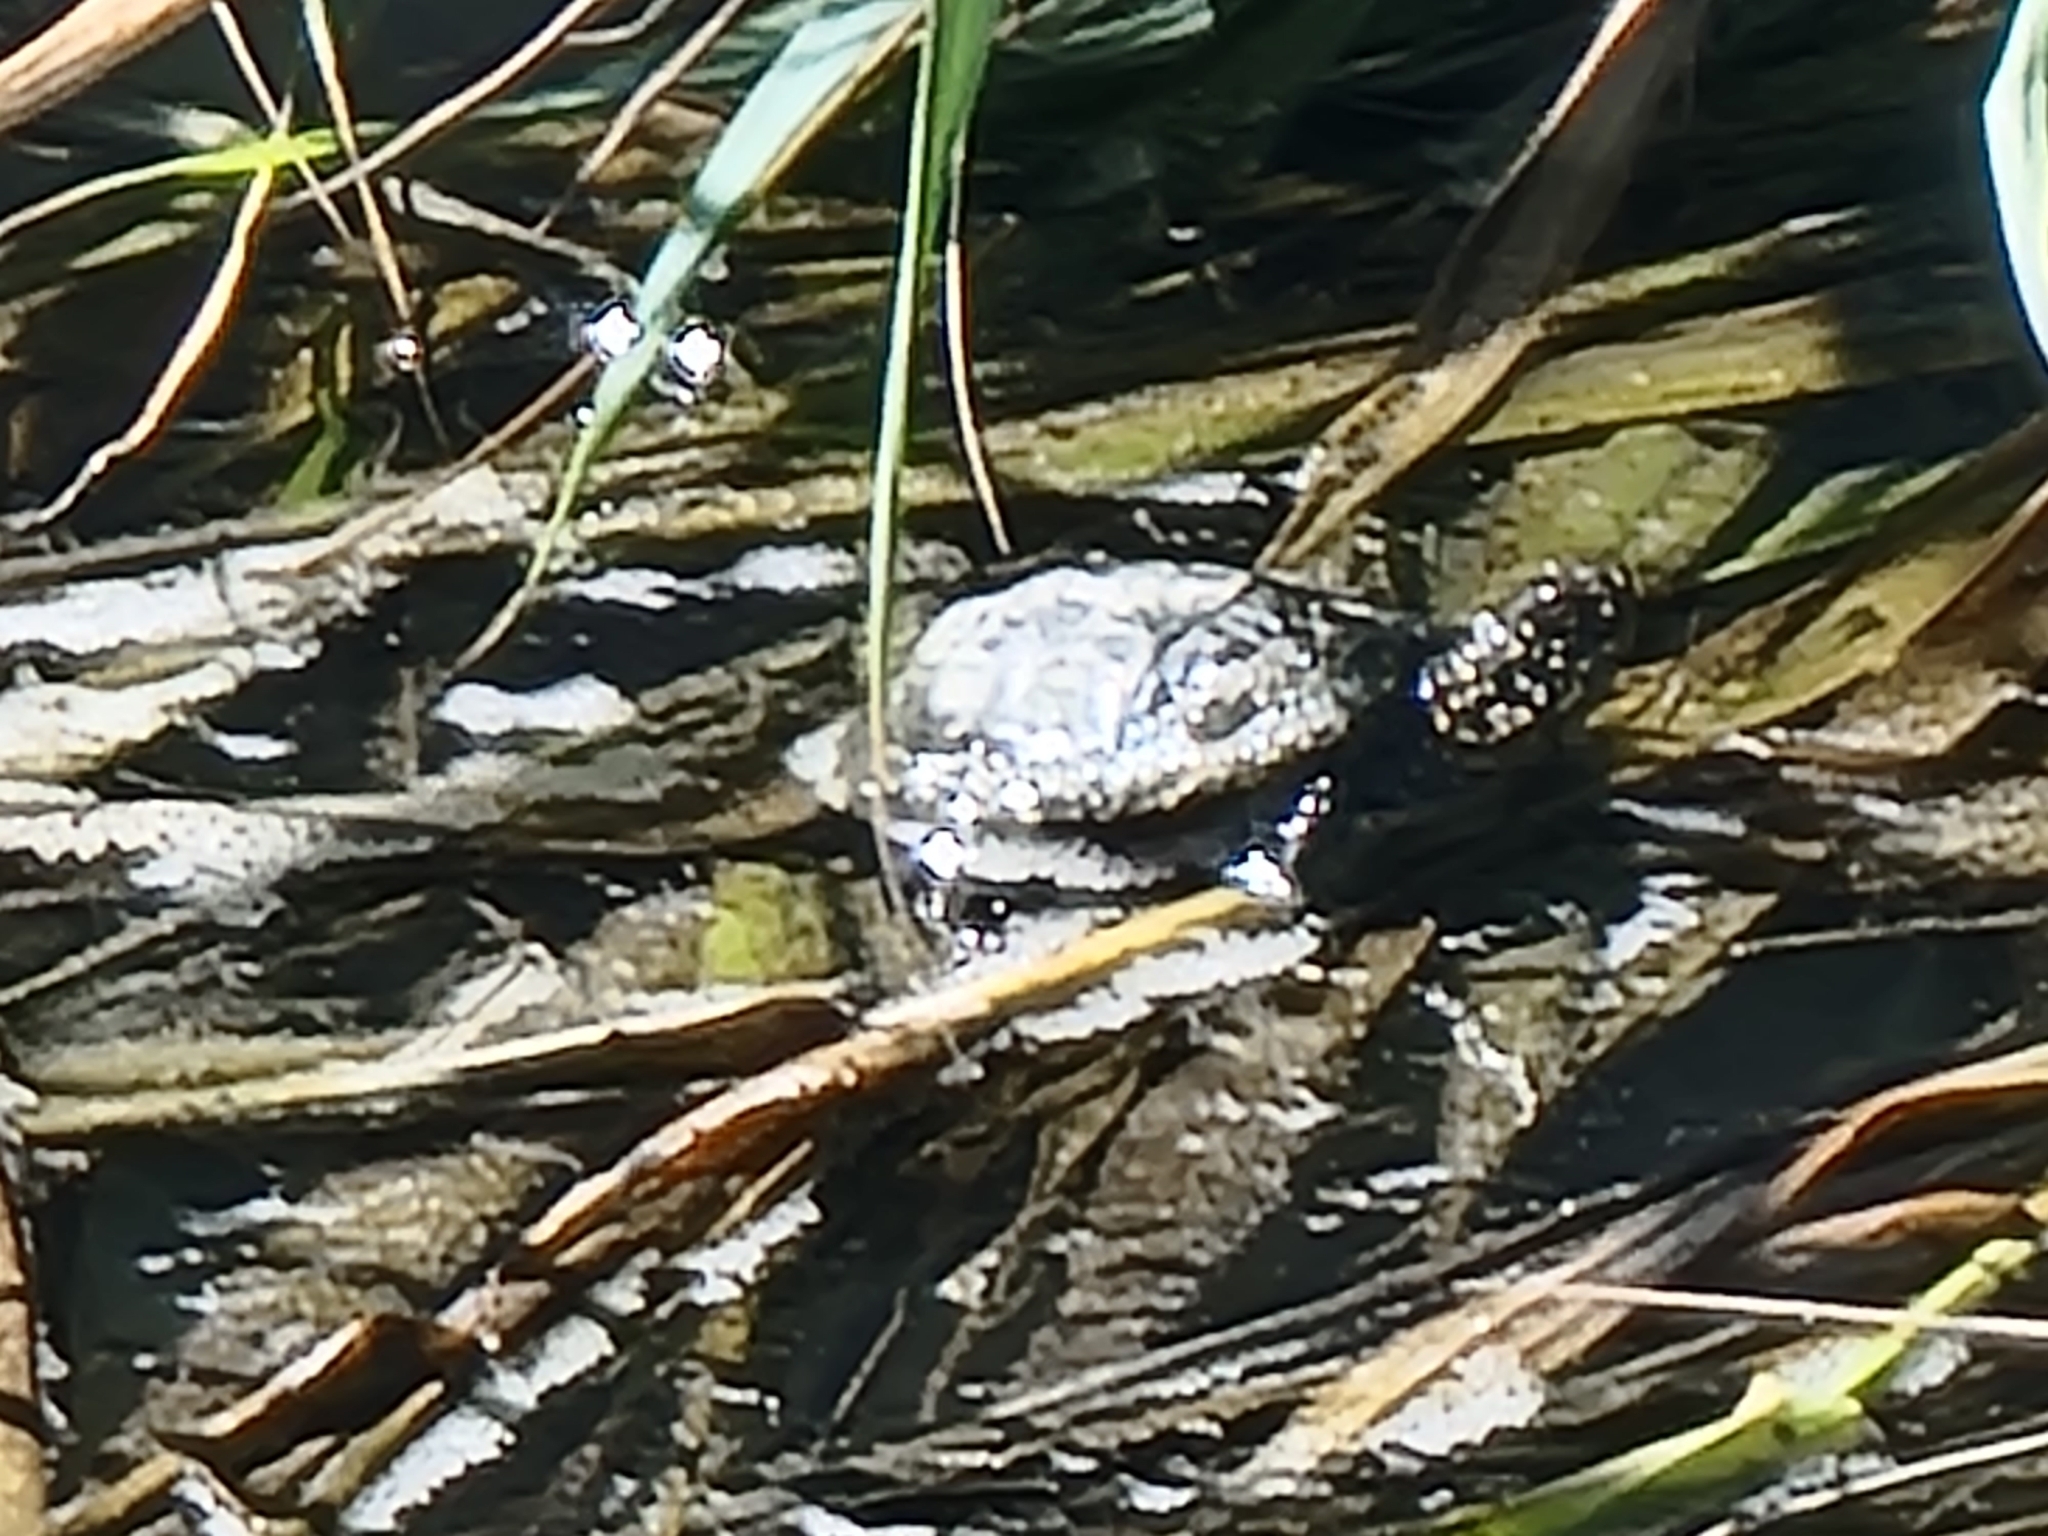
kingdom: Animalia
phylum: Chordata
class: Testudines
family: Emydidae
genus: Emys
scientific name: Emys orbicularis
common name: European pond turtle
